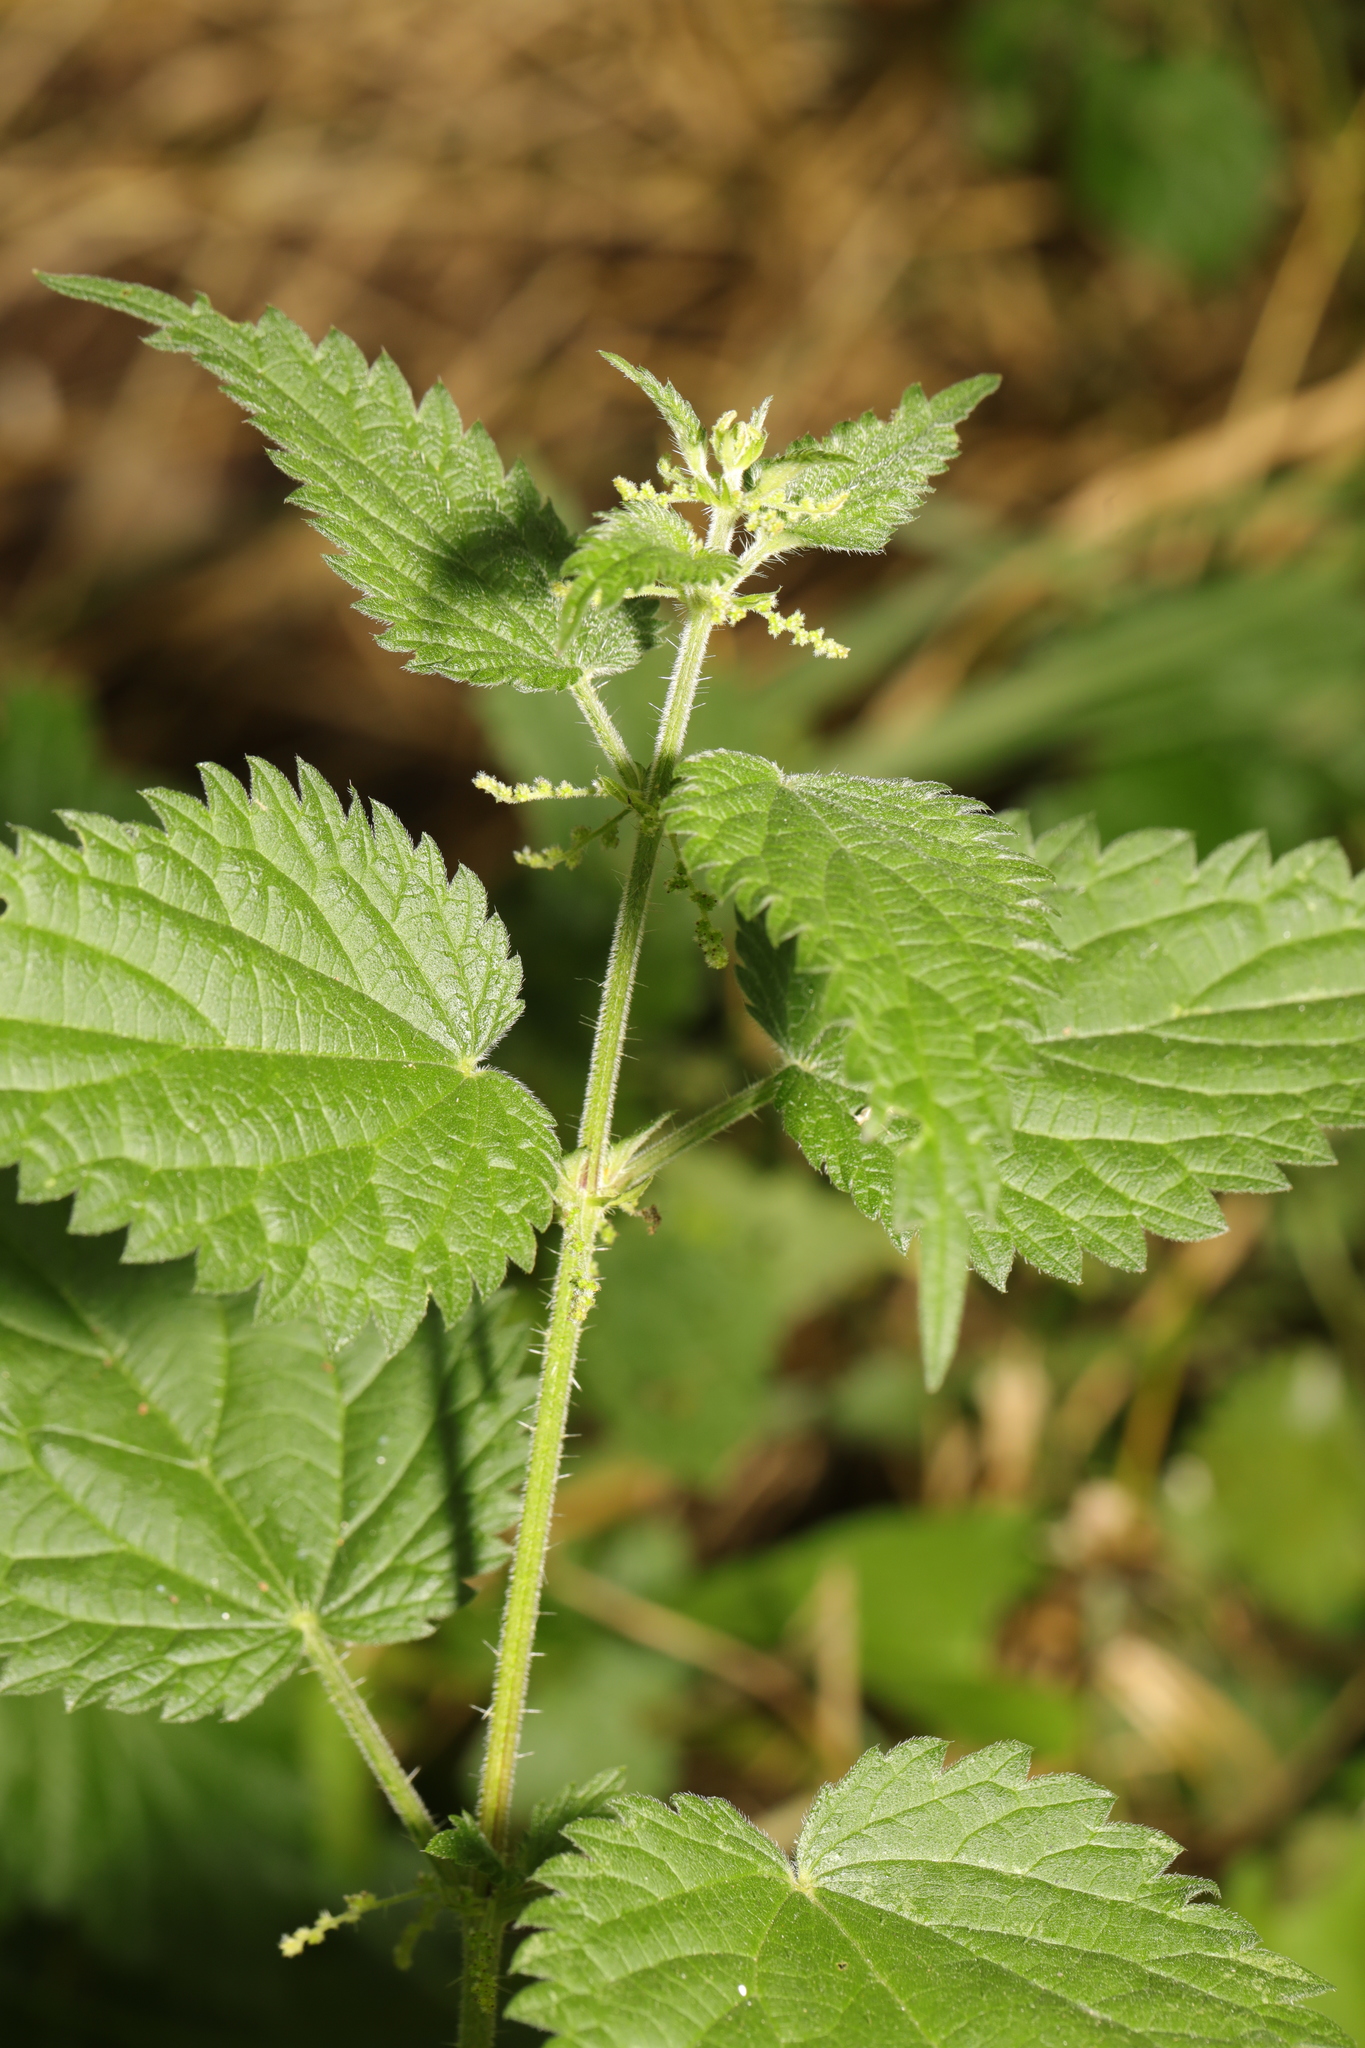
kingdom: Plantae
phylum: Tracheophyta
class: Magnoliopsida
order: Rosales
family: Urticaceae
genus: Urtica
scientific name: Urtica dioica
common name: Common nettle
